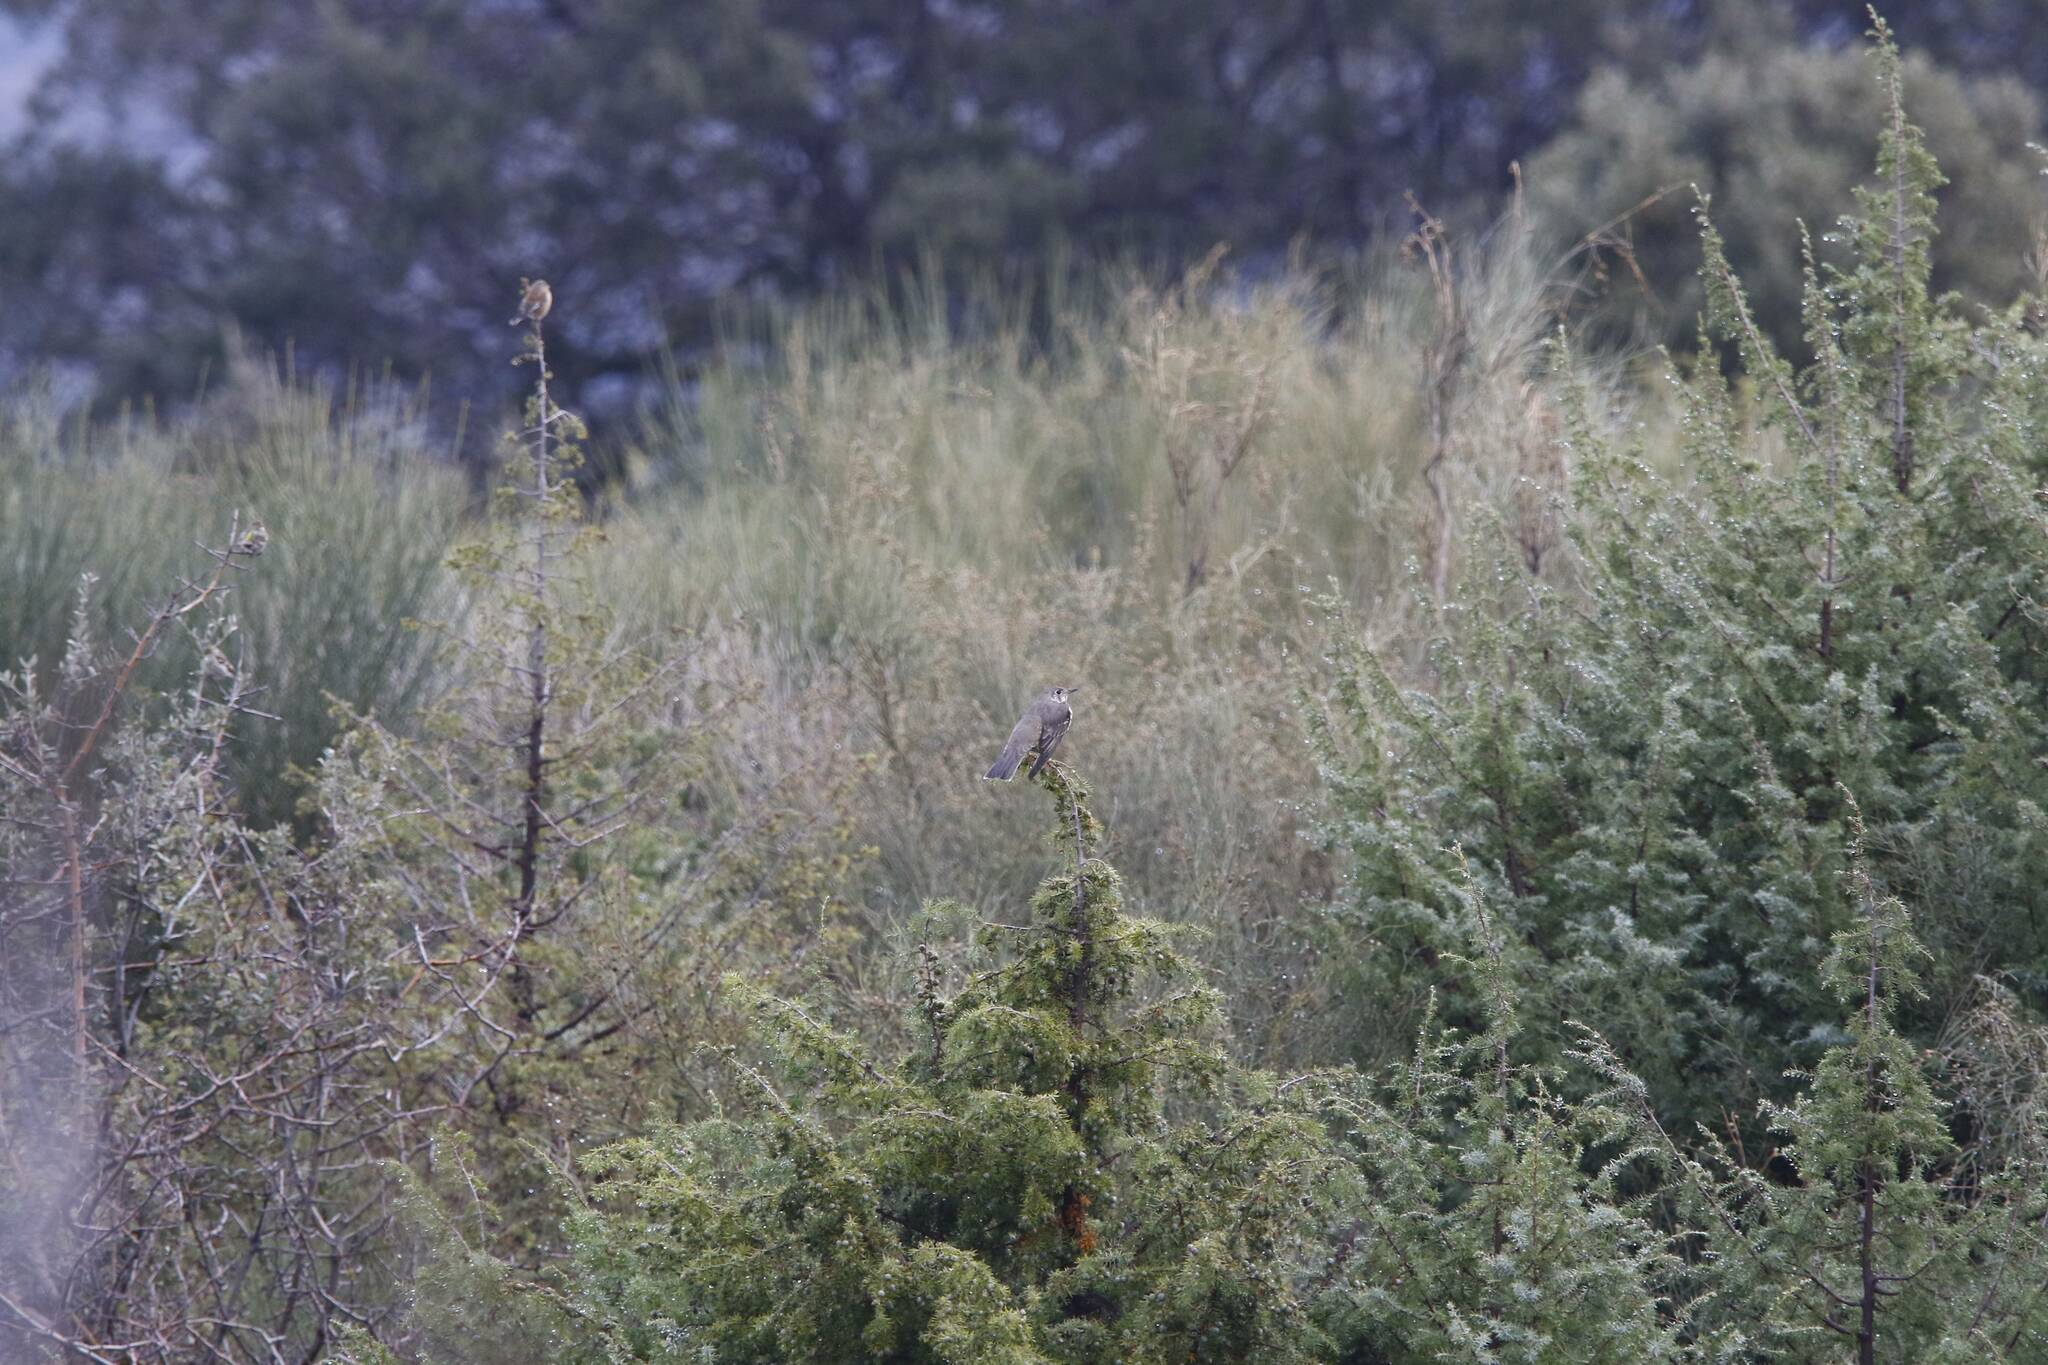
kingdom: Animalia
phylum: Chordata
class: Aves
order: Passeriformes
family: Turdidae
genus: Turdus
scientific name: Turdus viscivorus
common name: Mistle thrush
